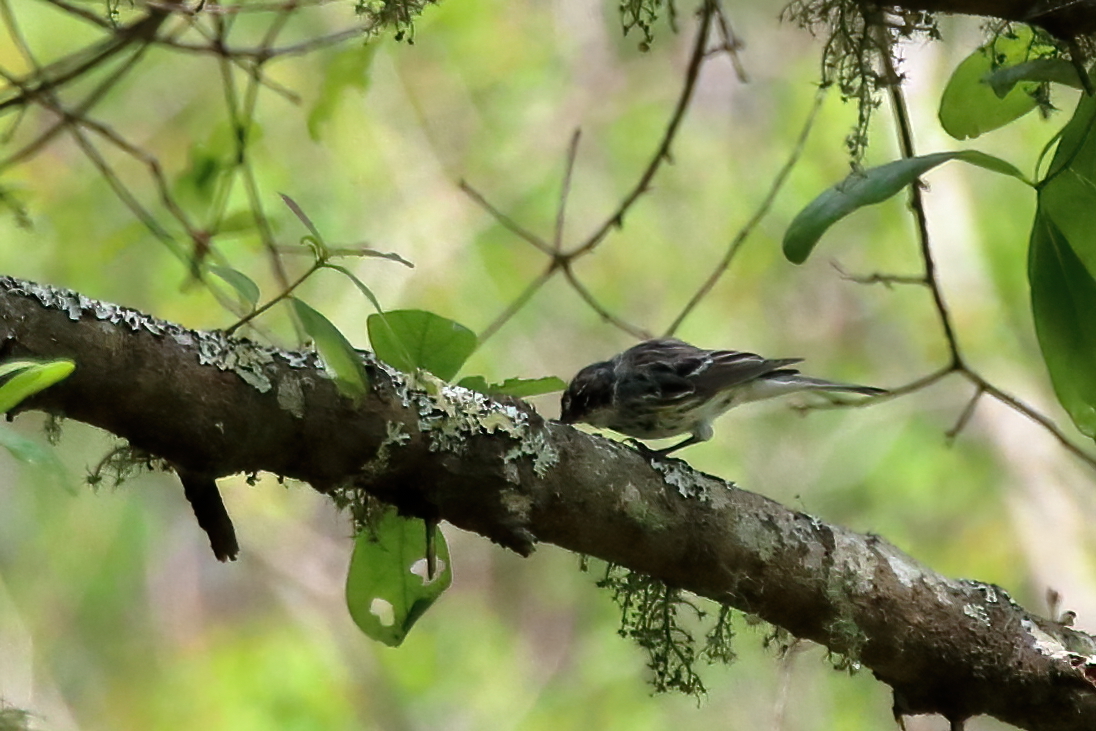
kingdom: Animalia
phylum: Chordata
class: Aves
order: Passeriformes
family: Parulidae
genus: Setophaga
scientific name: Setophaga coronata
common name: Myrtle warbler
